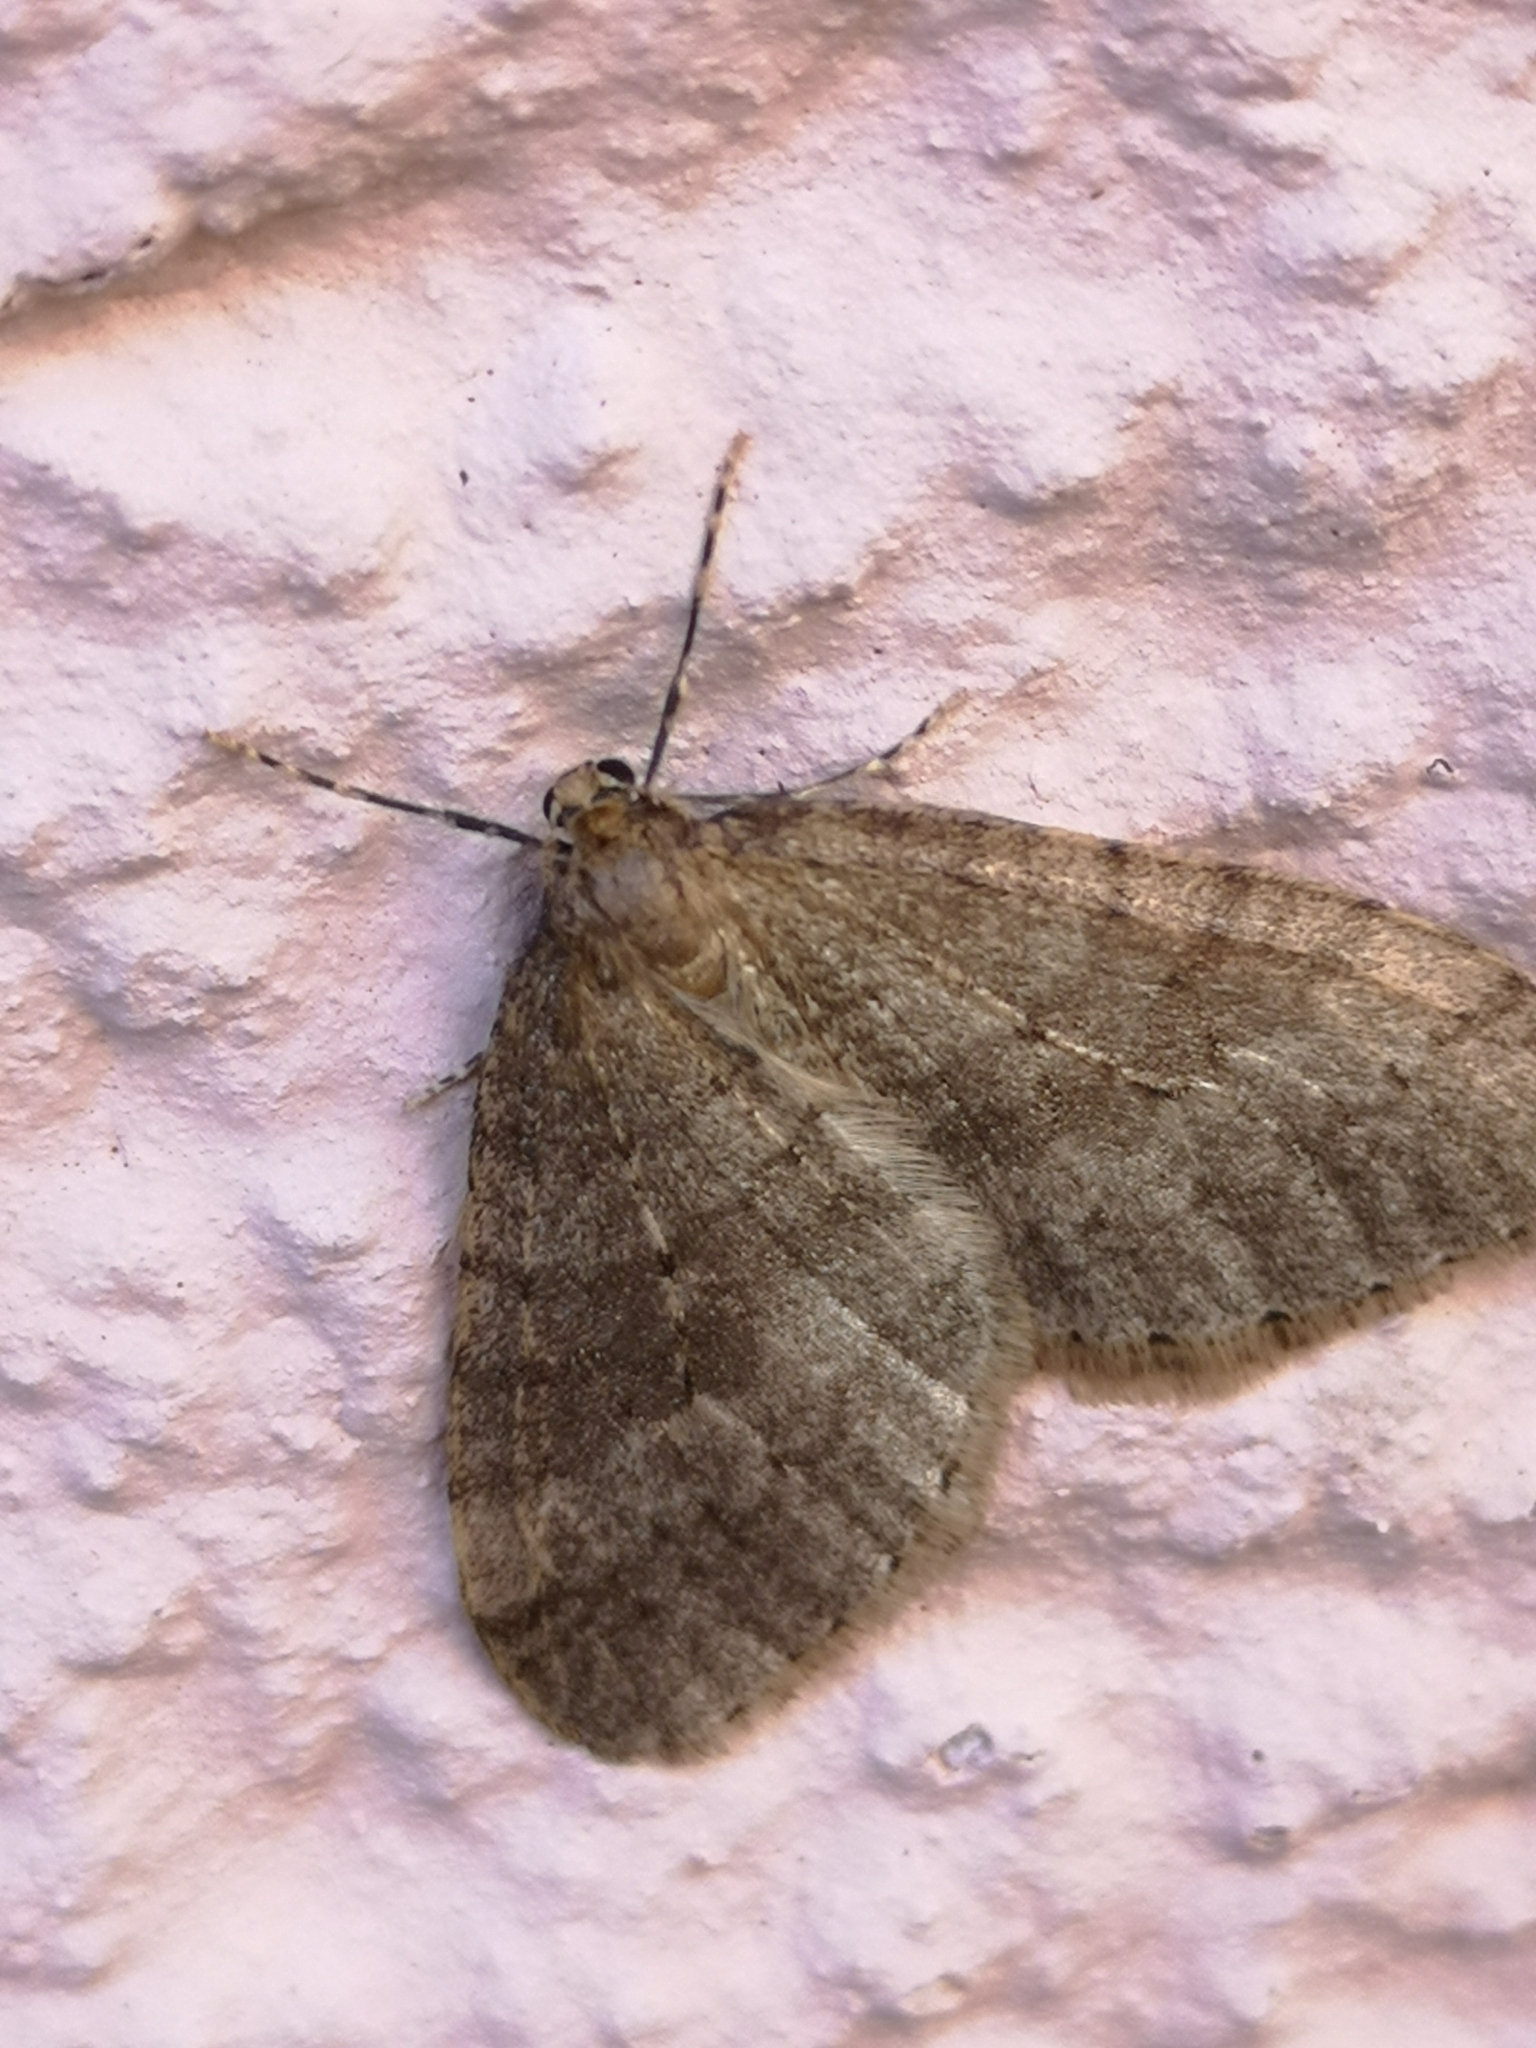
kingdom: Animalia
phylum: Arthropoda
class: Insecta
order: Lepidoptera
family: Geometridae
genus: Operophtera
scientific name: Operophtera brumata
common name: Winter moth
